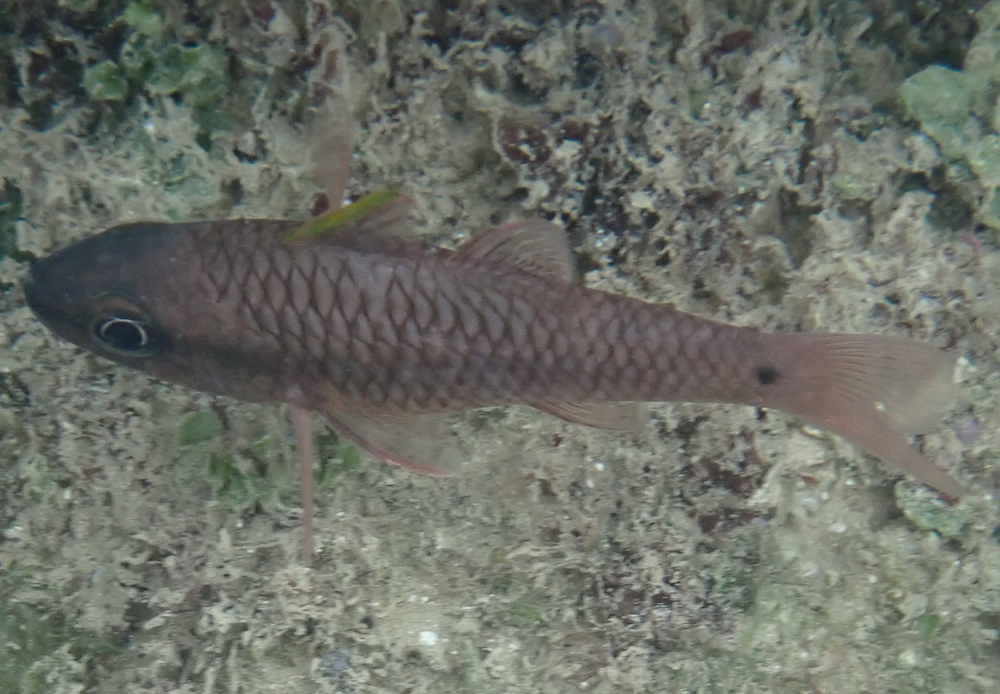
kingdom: Animalia
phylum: Chordata
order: Perciformes
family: Apogonidae
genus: Pristiapogon
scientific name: Pristiapogon kallopterus
